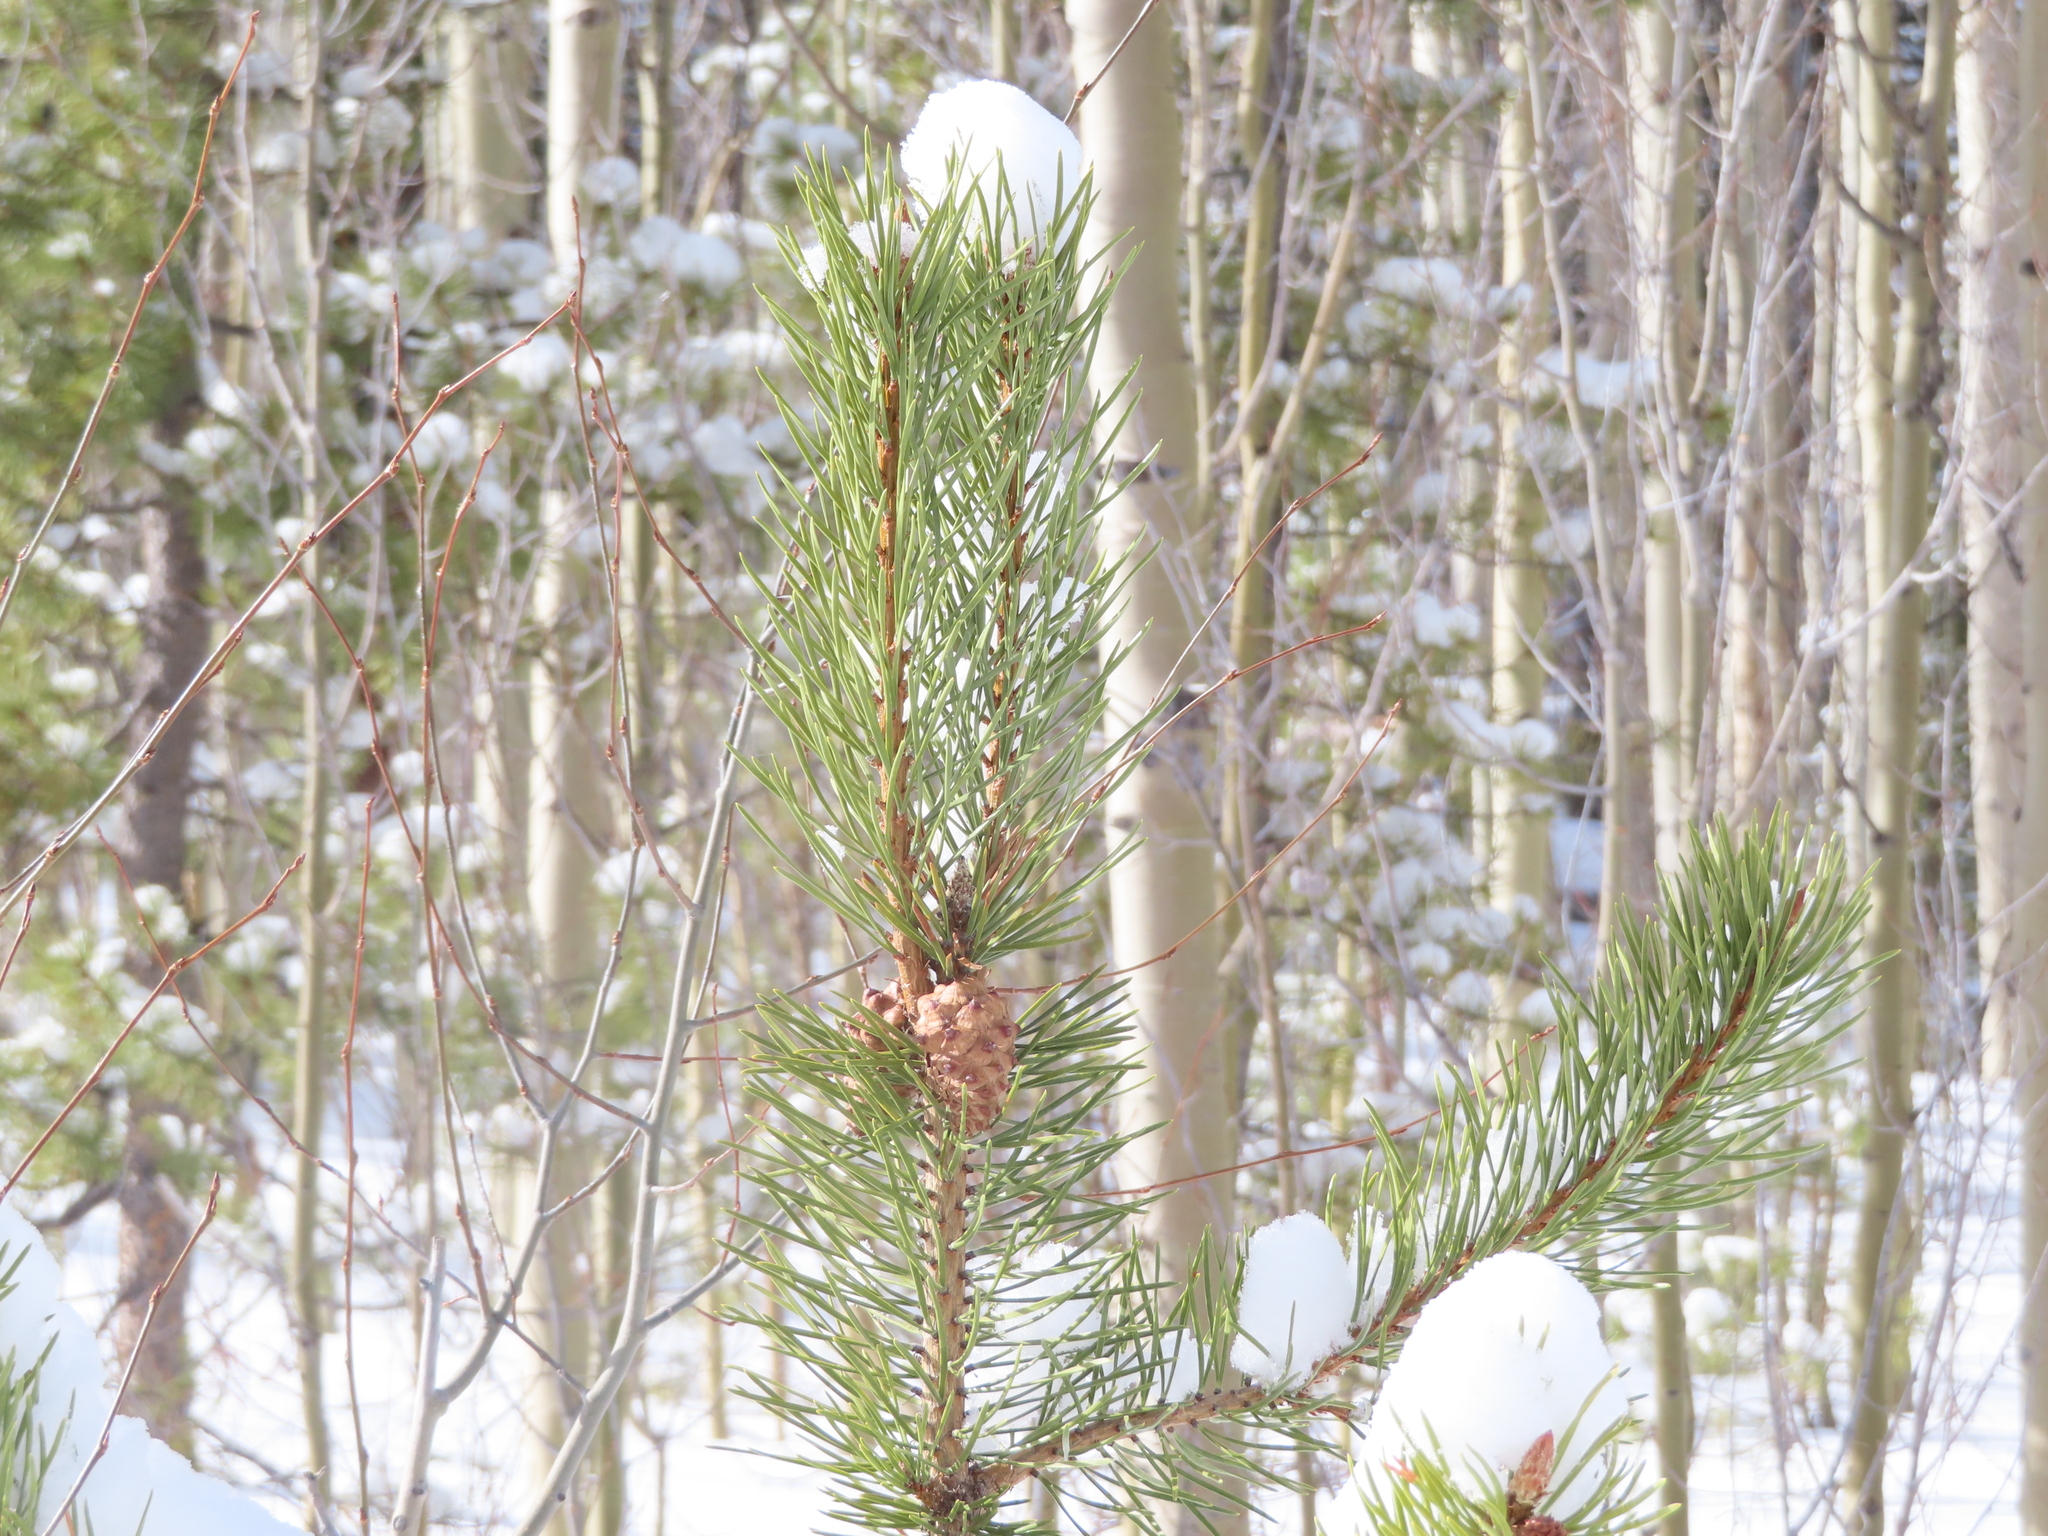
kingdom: Plantae
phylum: Tracheophyta
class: Pinopsida
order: Pinales
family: Pinaceae
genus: Pinus
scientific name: Pinus contorta
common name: Lodgepole pine
